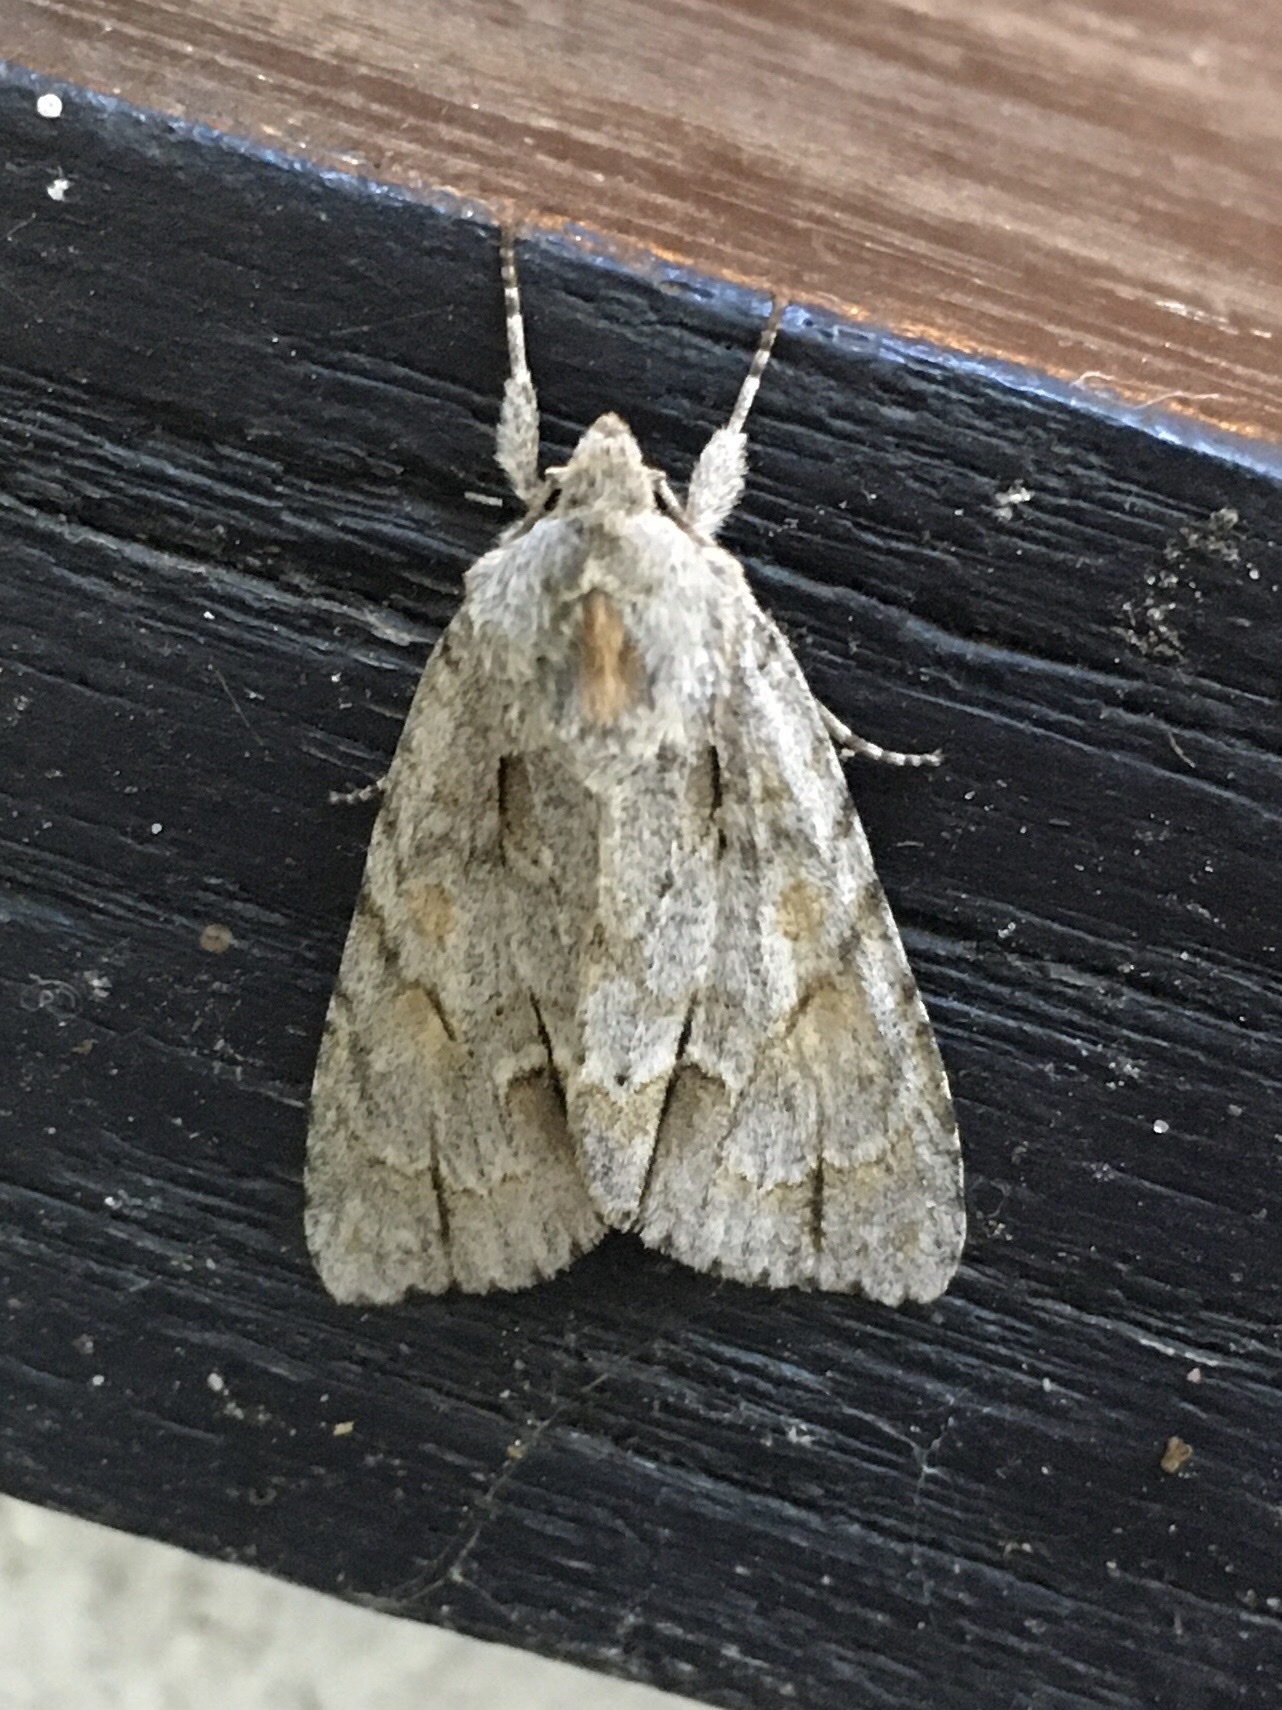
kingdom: Animalia
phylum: Arthropoda
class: Insecta
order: Lepidoptera
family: Noctuidae
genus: Acronicta
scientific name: Acronicta morula
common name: Ochre dagger
